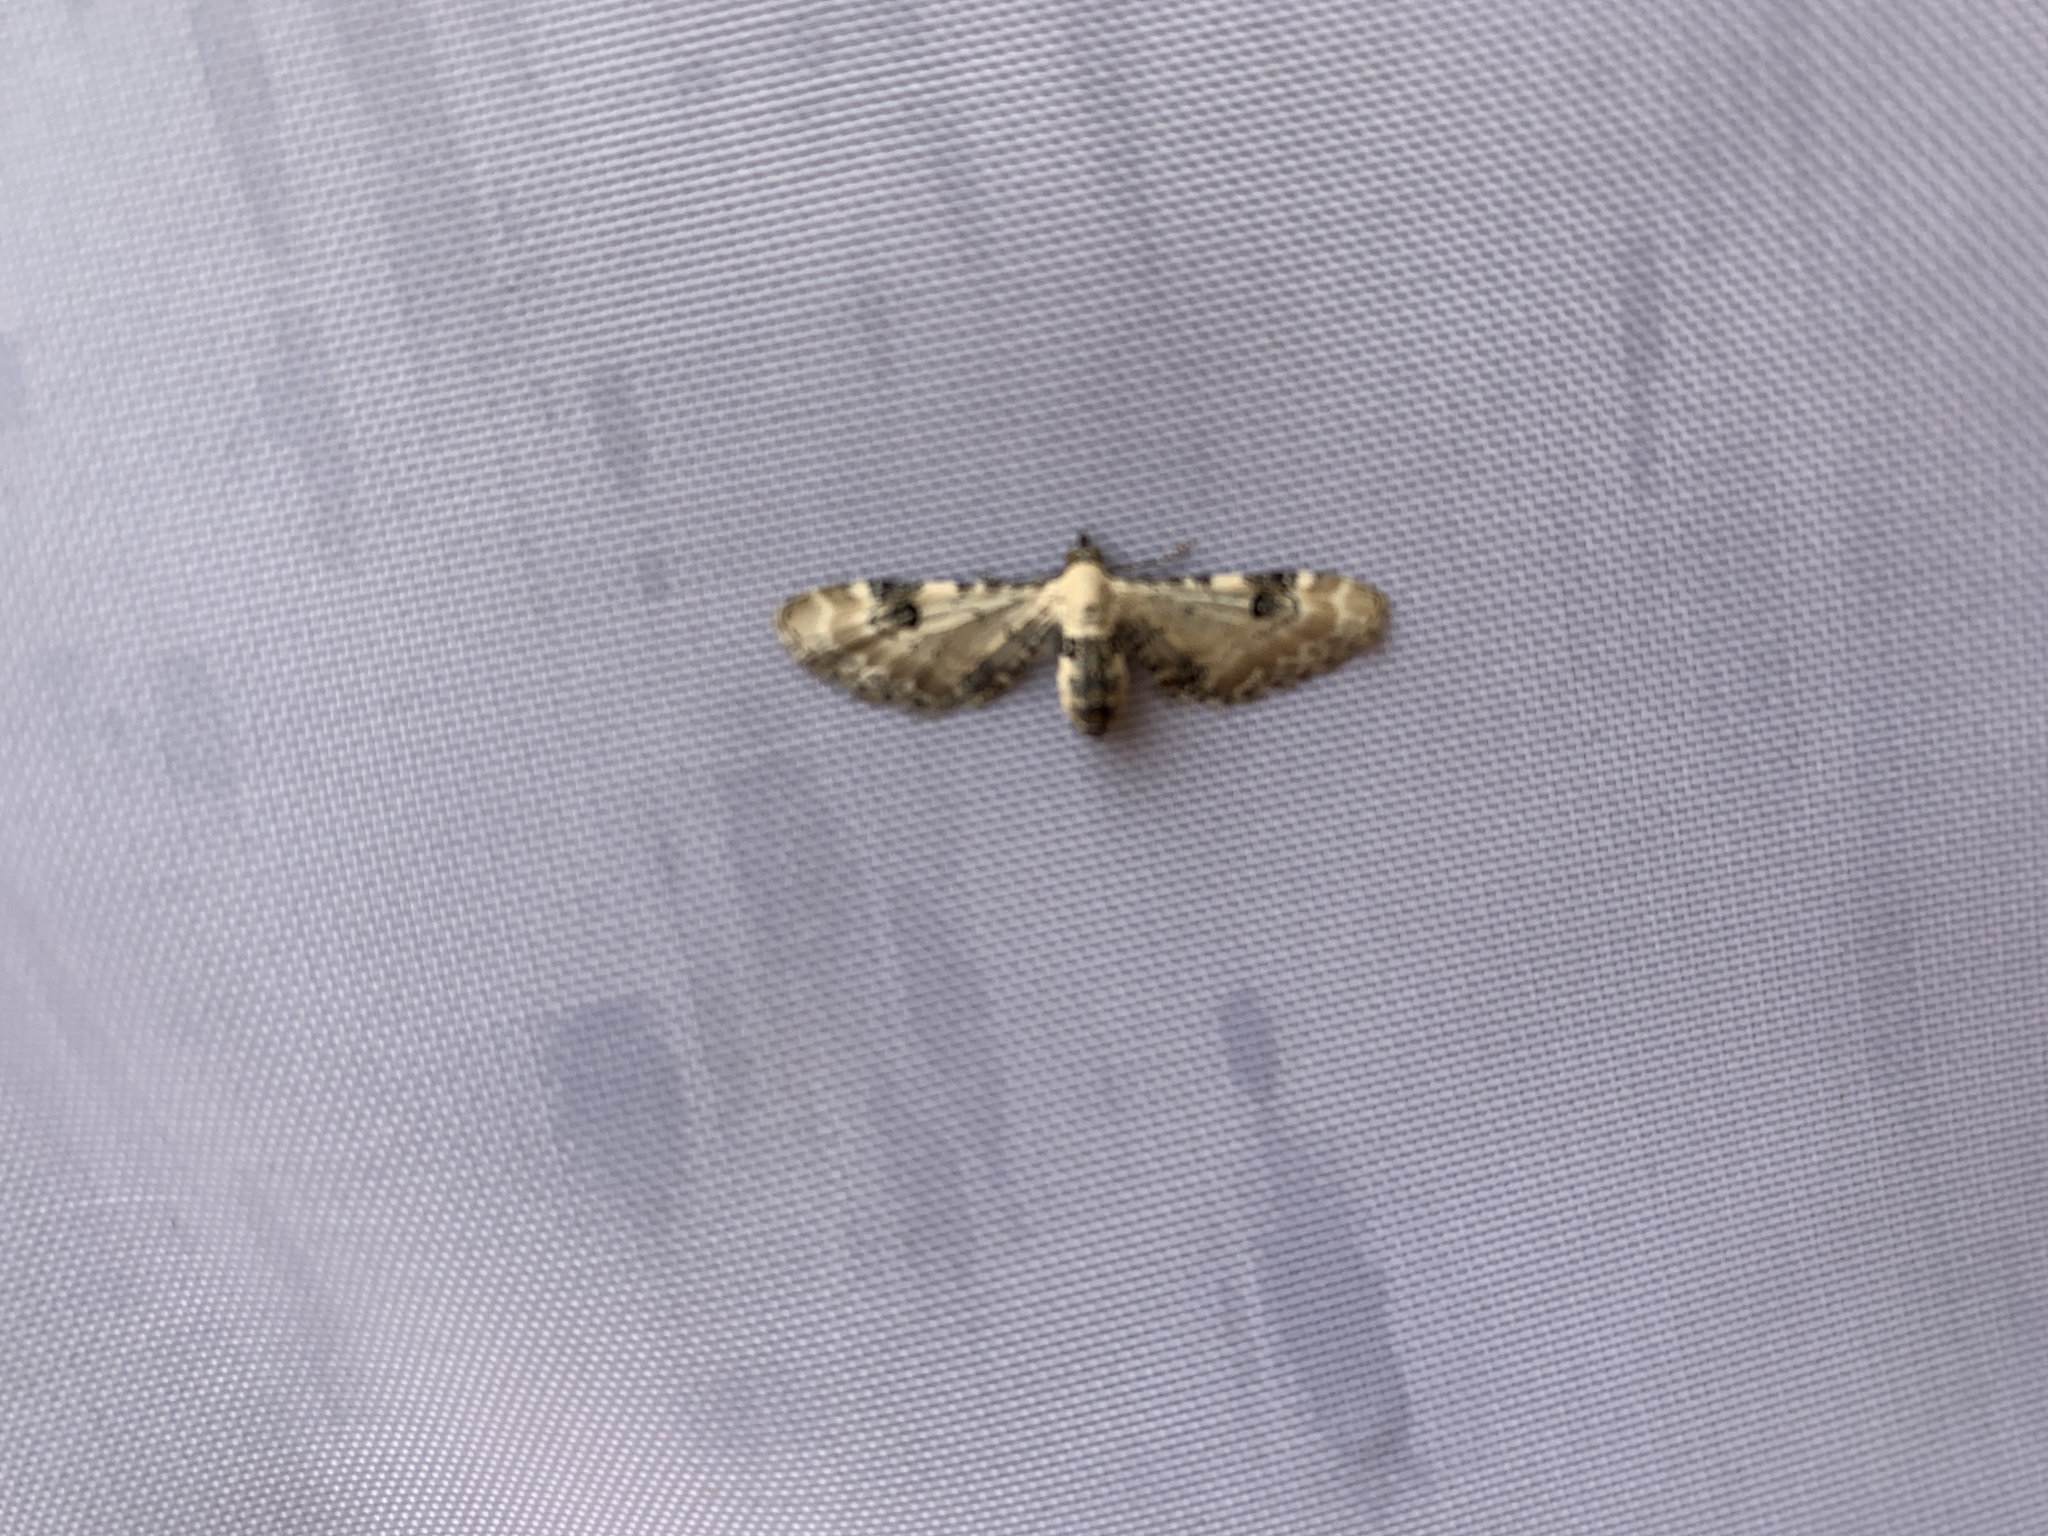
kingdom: Animalia
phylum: Arthropoda
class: Insecta
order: Lepidoptera
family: Geometridae
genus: Eupithecia
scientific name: Eupithecia centaureata
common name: Lime-speck pug
